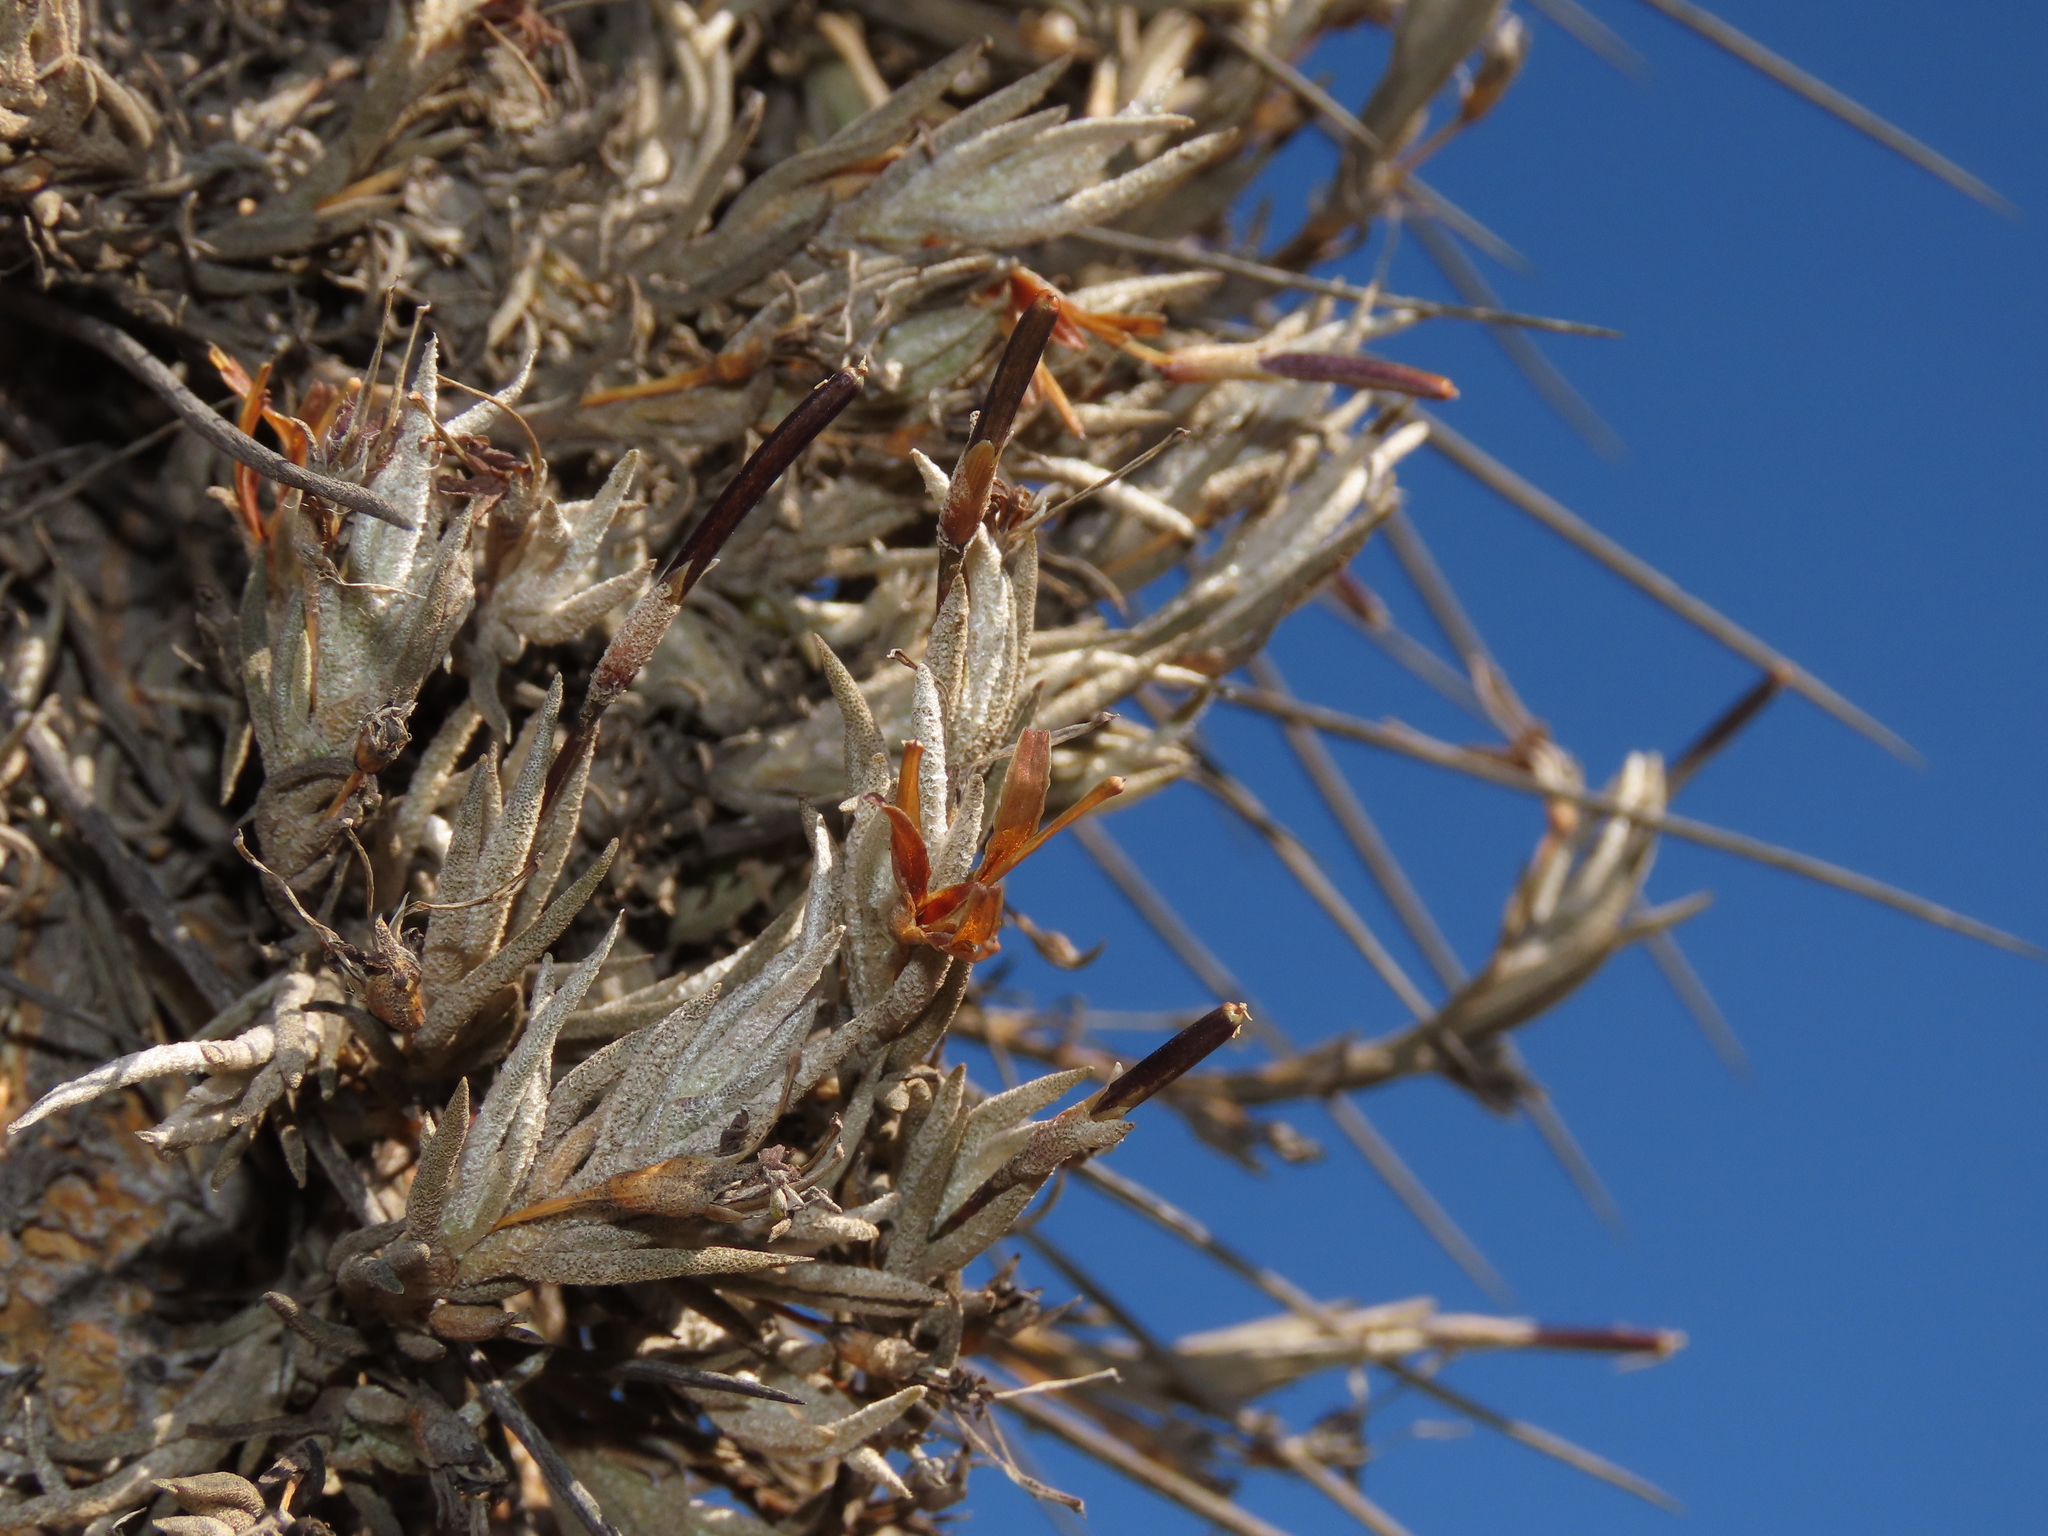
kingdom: Plantae
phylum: Tracheophyta
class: Liliopsida
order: Poales
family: Bromeliaceae
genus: Tillandsia
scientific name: Tillandsia virescens
